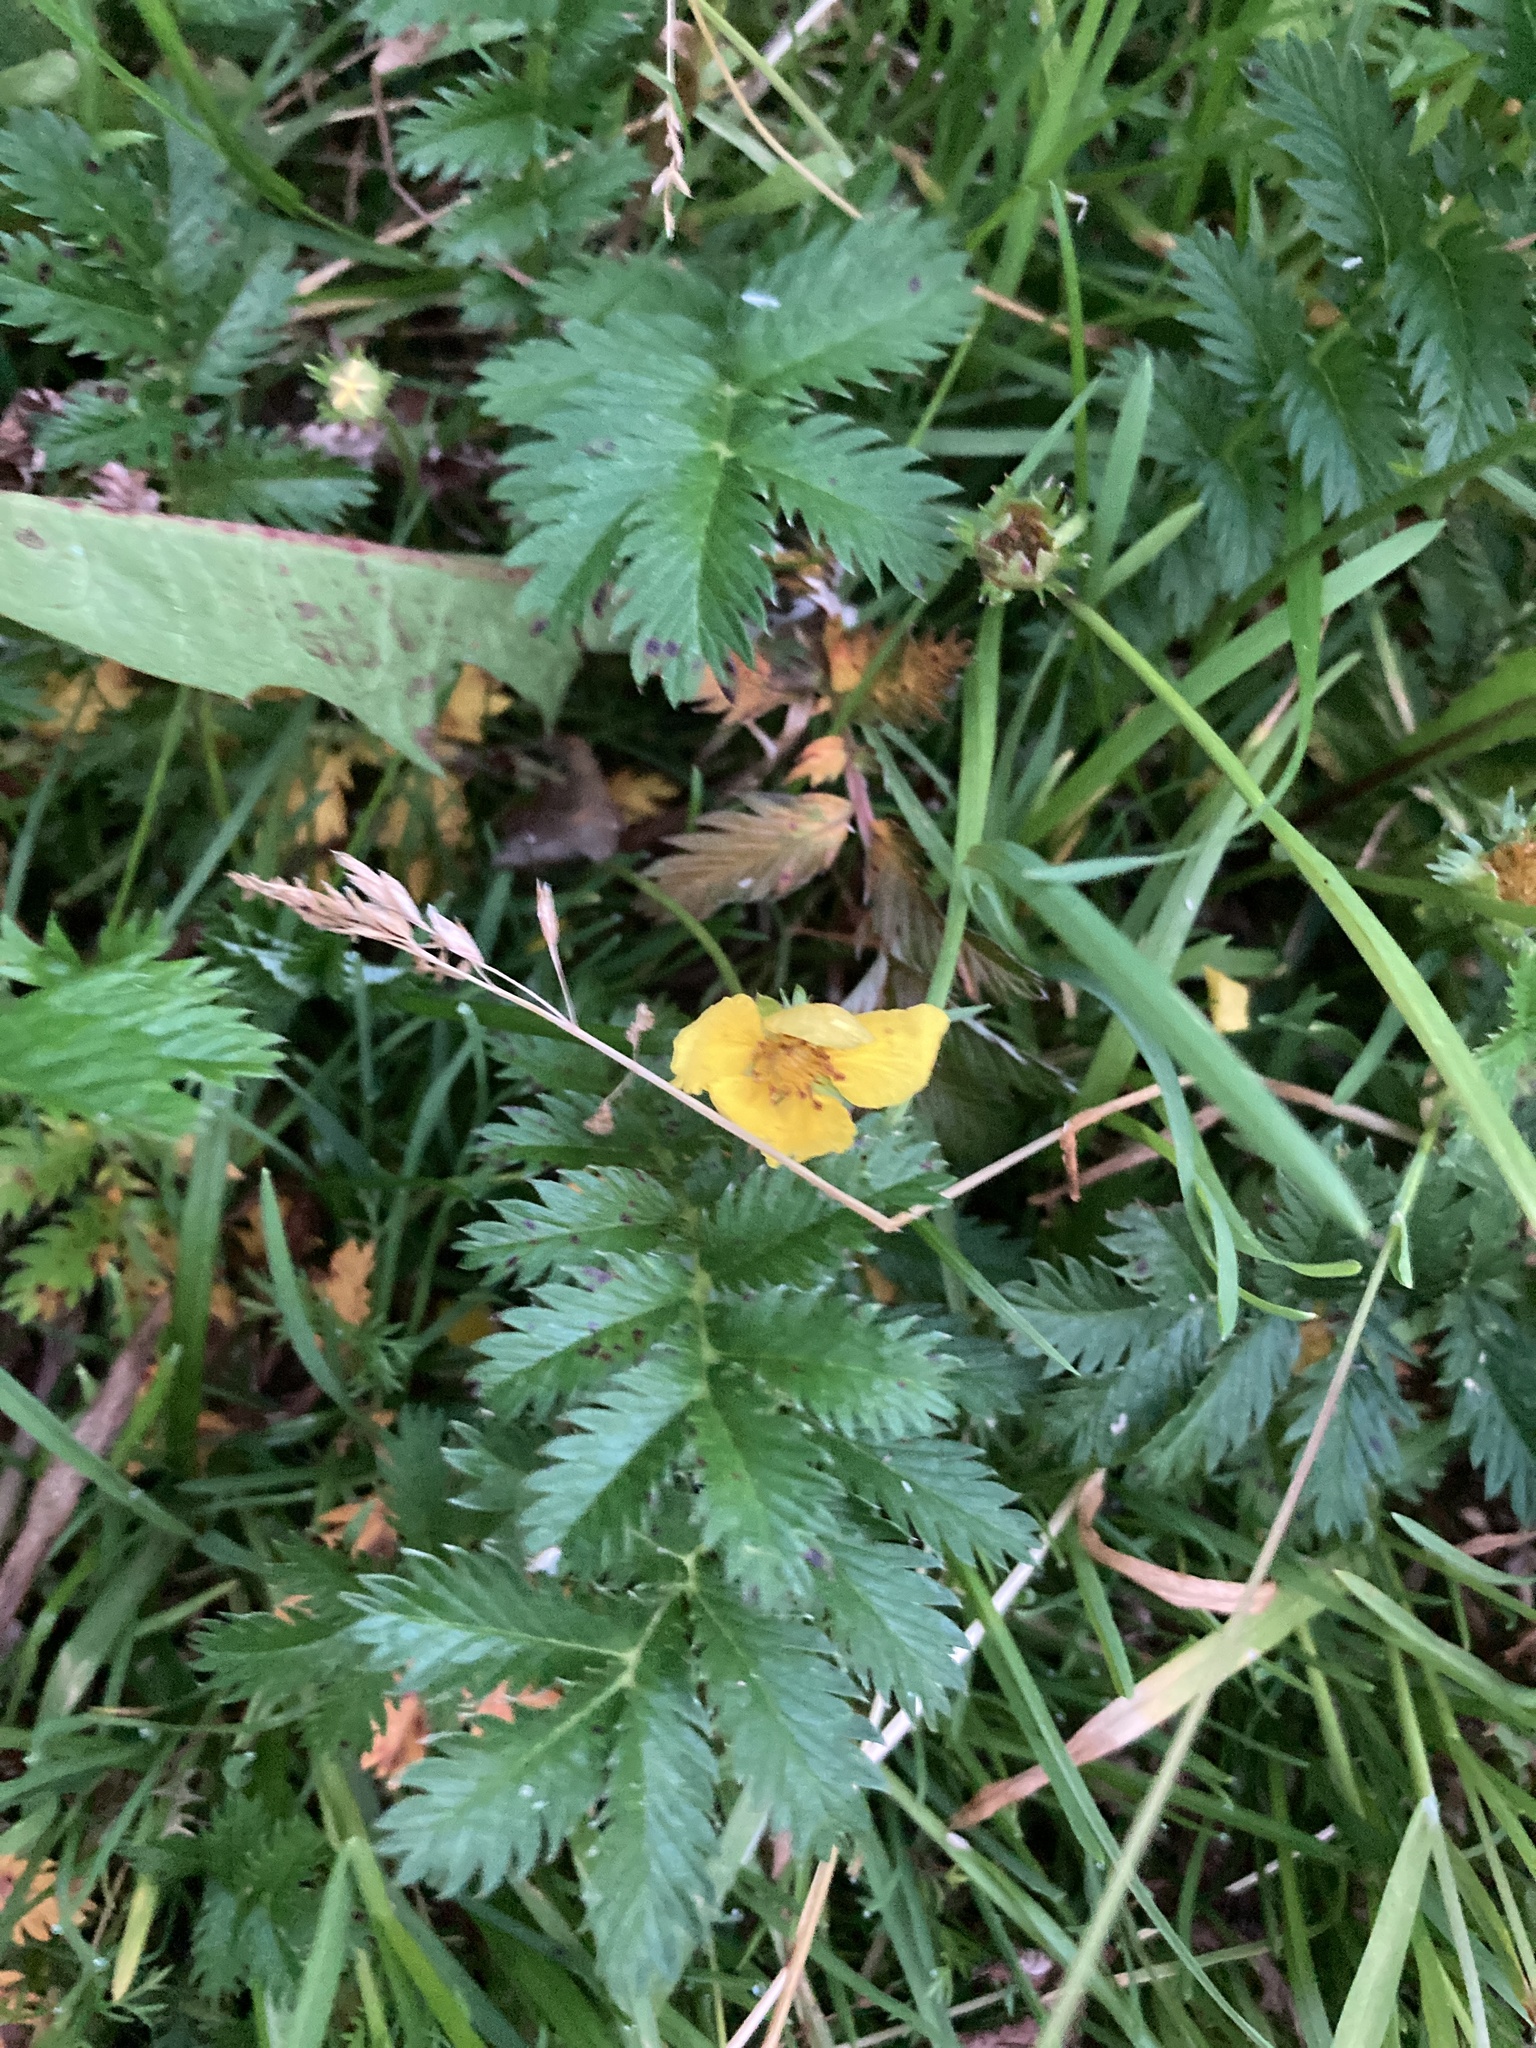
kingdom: Plantae
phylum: Tracheophyta
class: Magnoliopsida
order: Rosales
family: Rosaceae
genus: Argentina
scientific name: Argentina anserina
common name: Common silverweed
